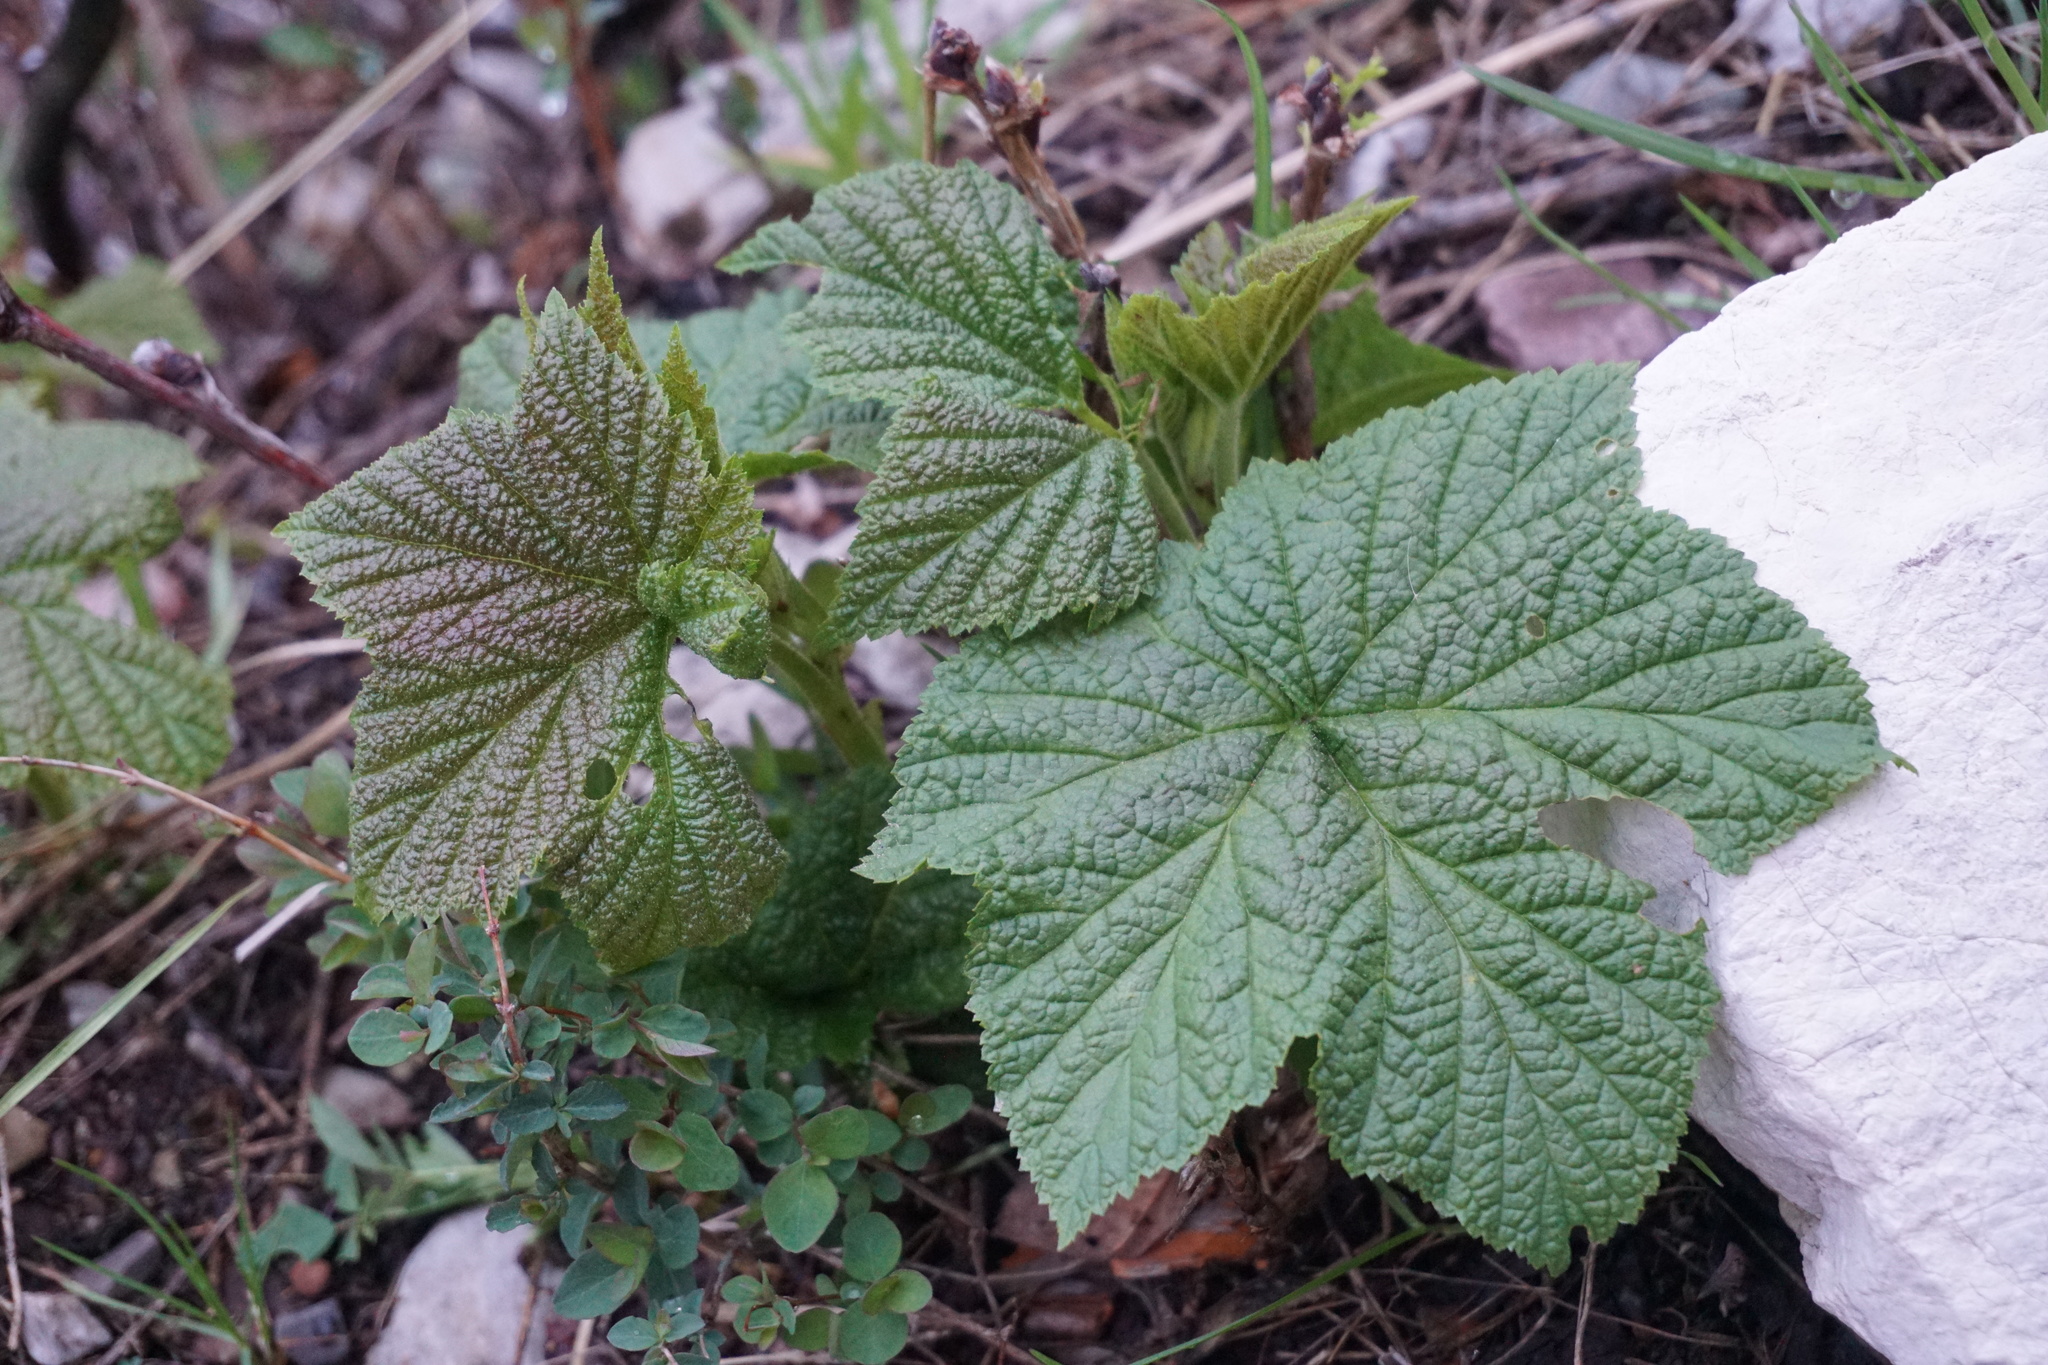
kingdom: Plantae
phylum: Tracheophyta
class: Magnoliopsida
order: Rosales
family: Rosaceae
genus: Rubus
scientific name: Rubus parviflorus
